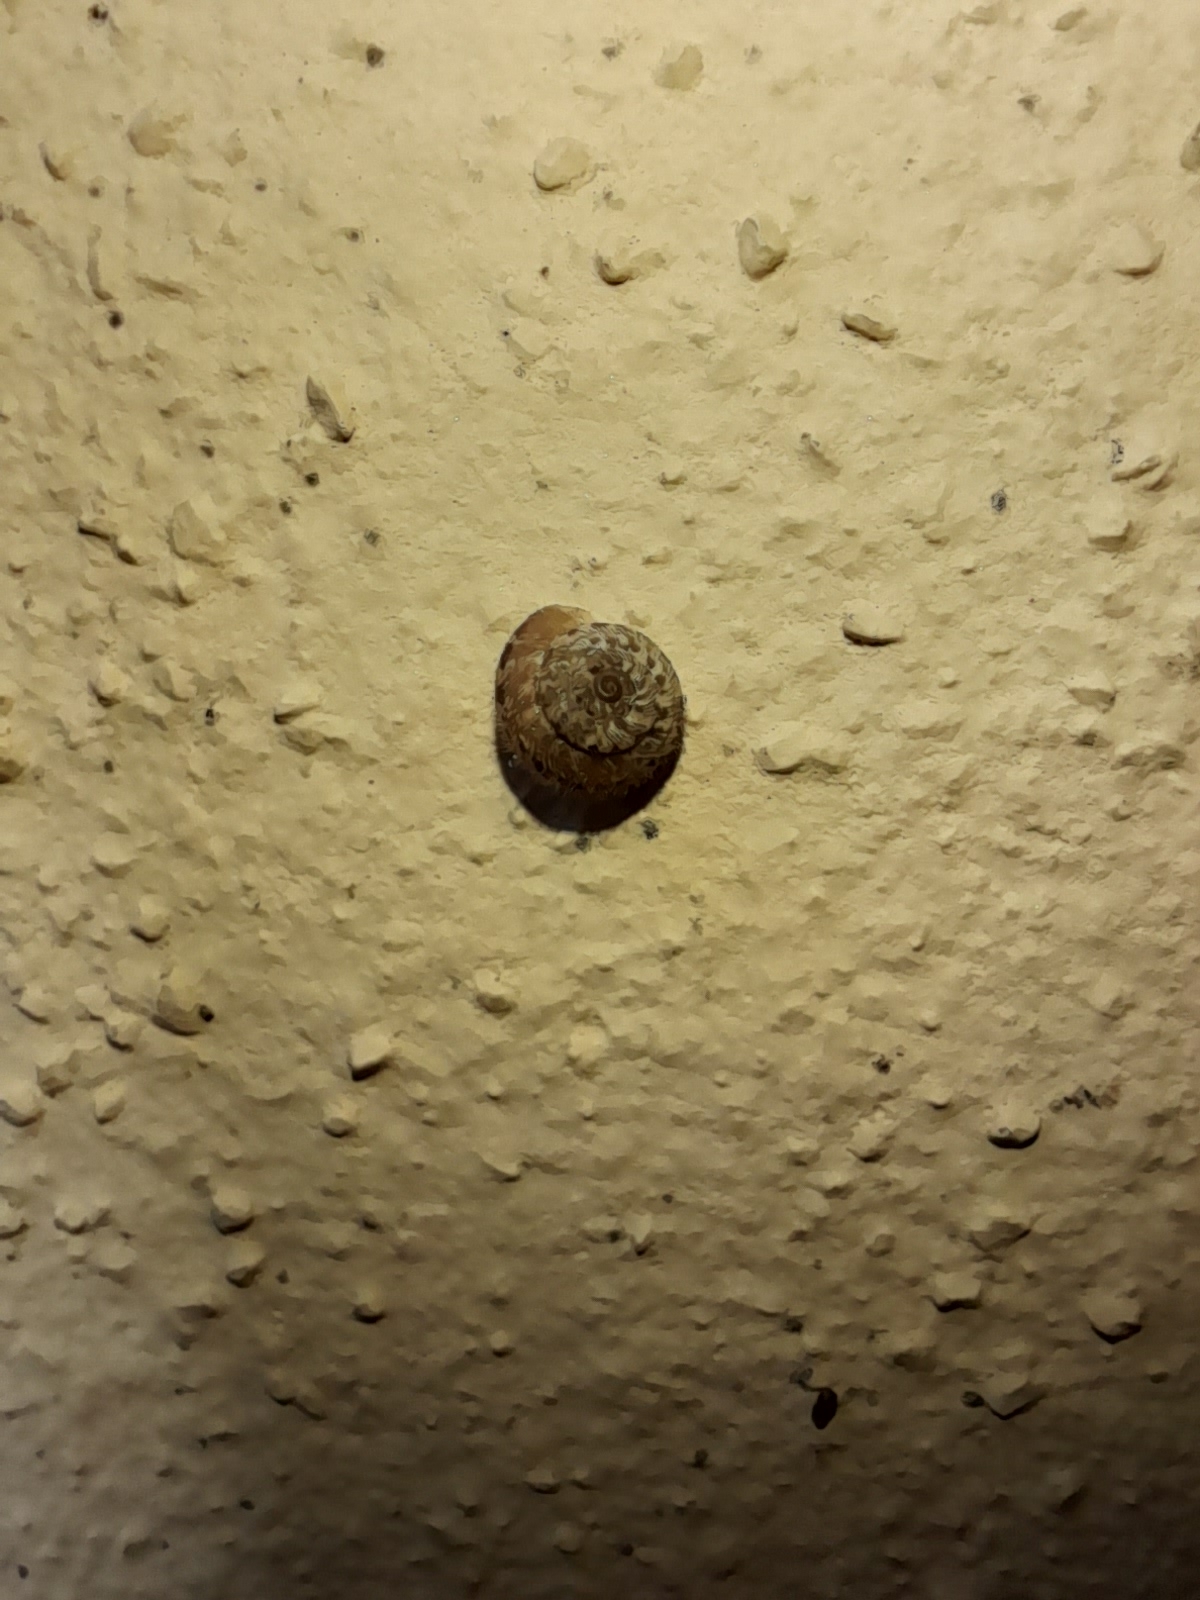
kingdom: Animalia
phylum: Mollusca
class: Gastropoda
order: Stylommatophora
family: Geomitridae
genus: Xerotricha
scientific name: Xerotricha conspurcata
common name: Snail
